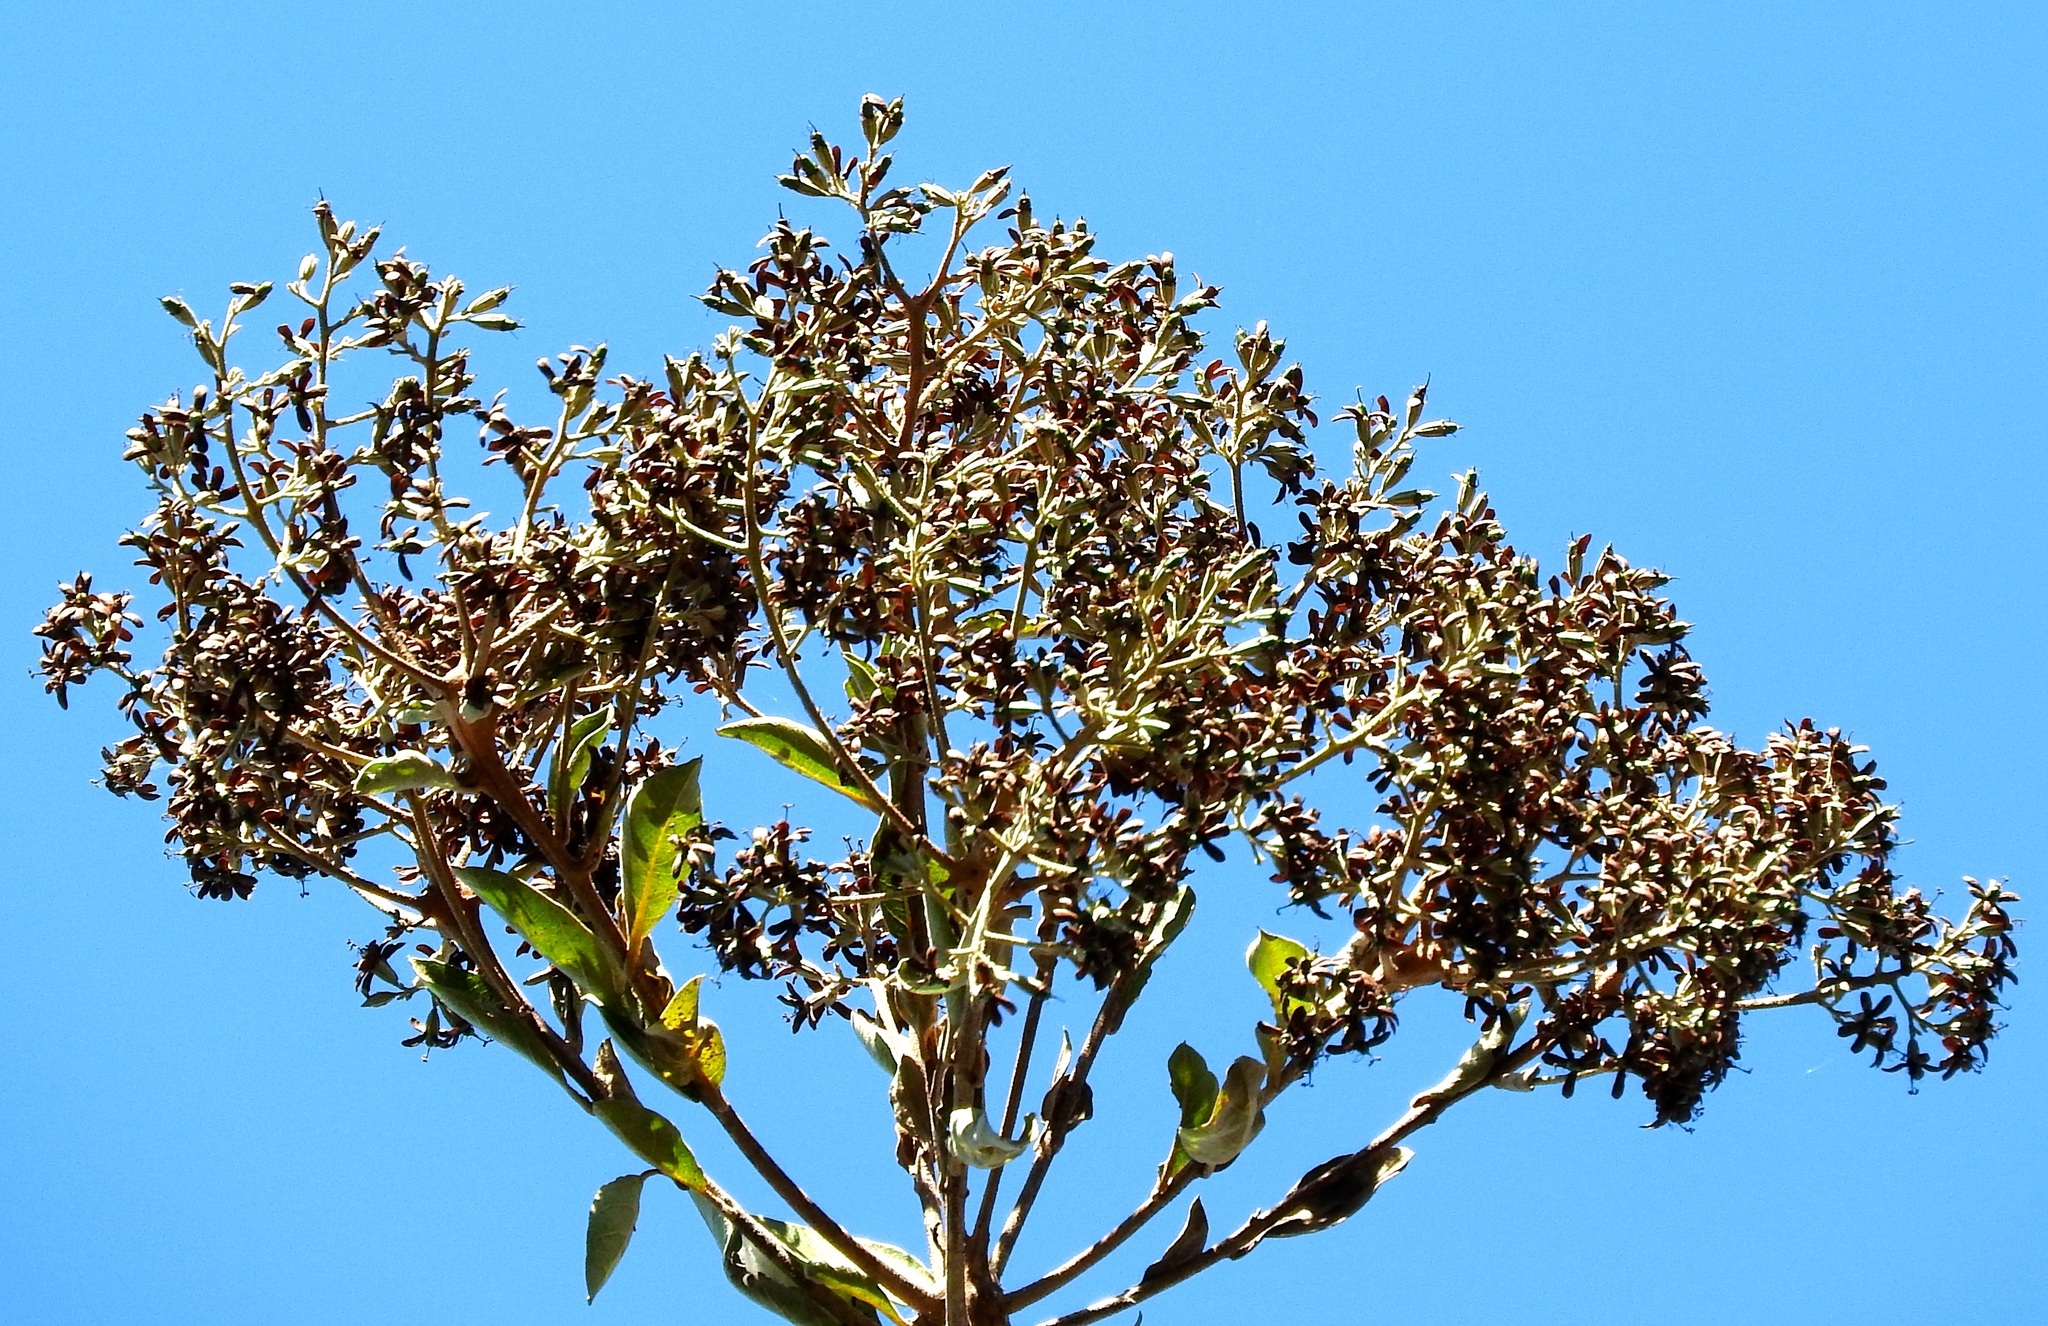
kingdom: Plantae
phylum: Tracheophyta
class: Magnoliopsida
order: Boraginales
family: Cordiaceae
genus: Cordia
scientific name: Cordia alliodora
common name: Spanish elm
